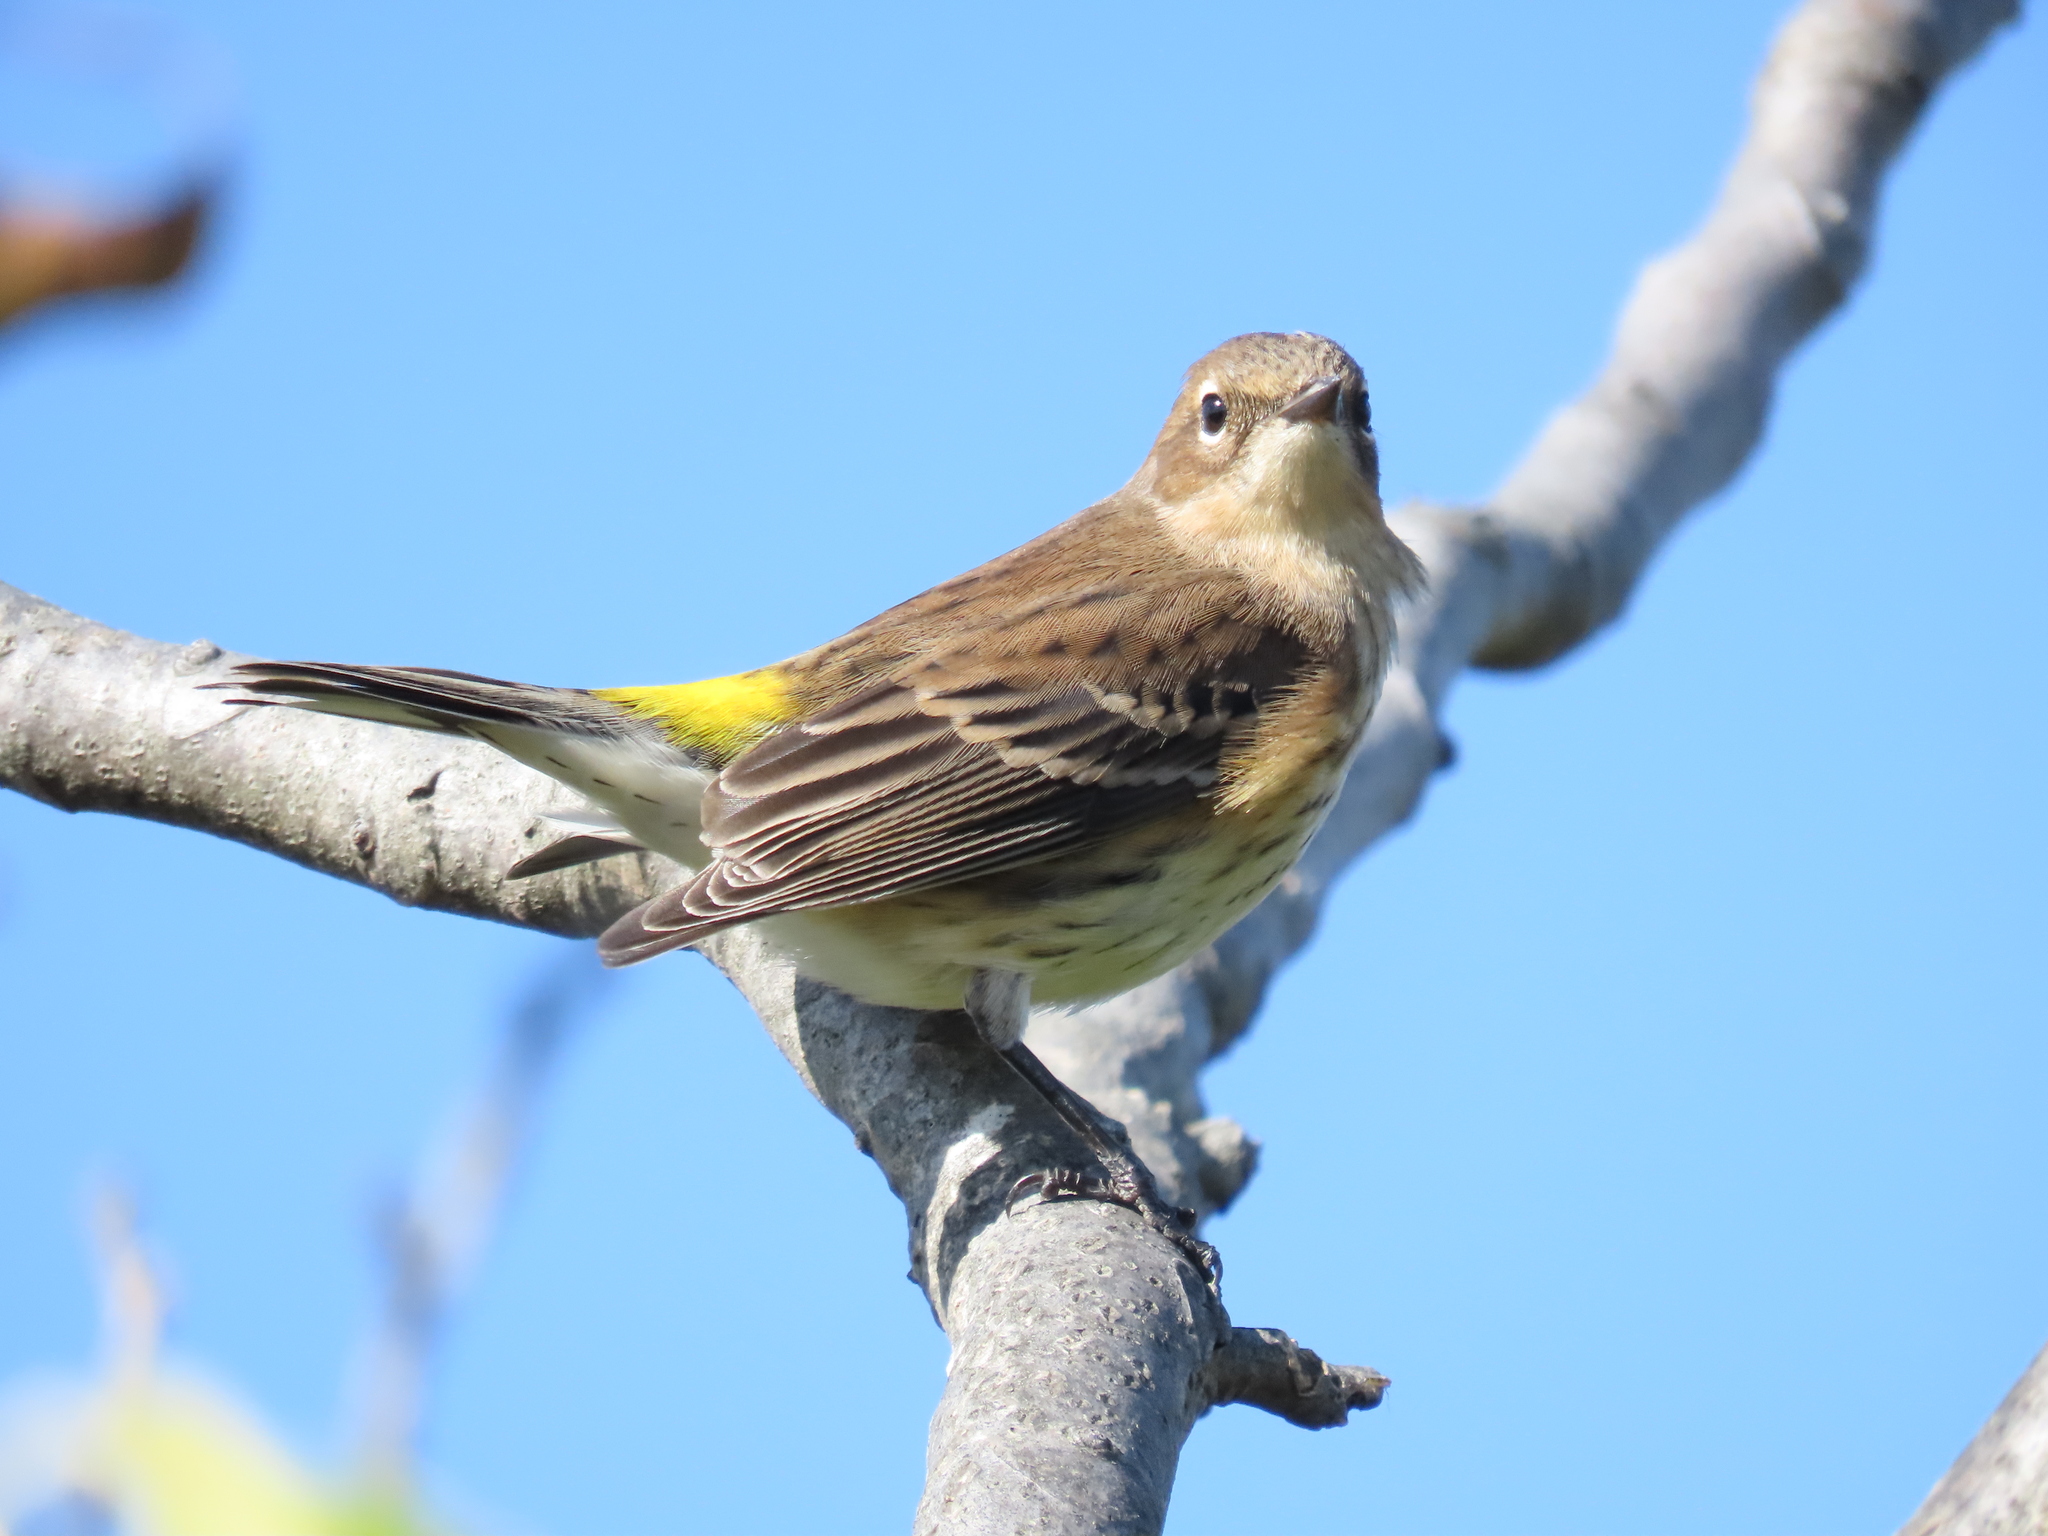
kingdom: Animalia
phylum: Chordata
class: Aves
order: Passeriformes
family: Parulidae
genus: Setophaga
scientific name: Setophaga coronata
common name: Myrtle warbler
